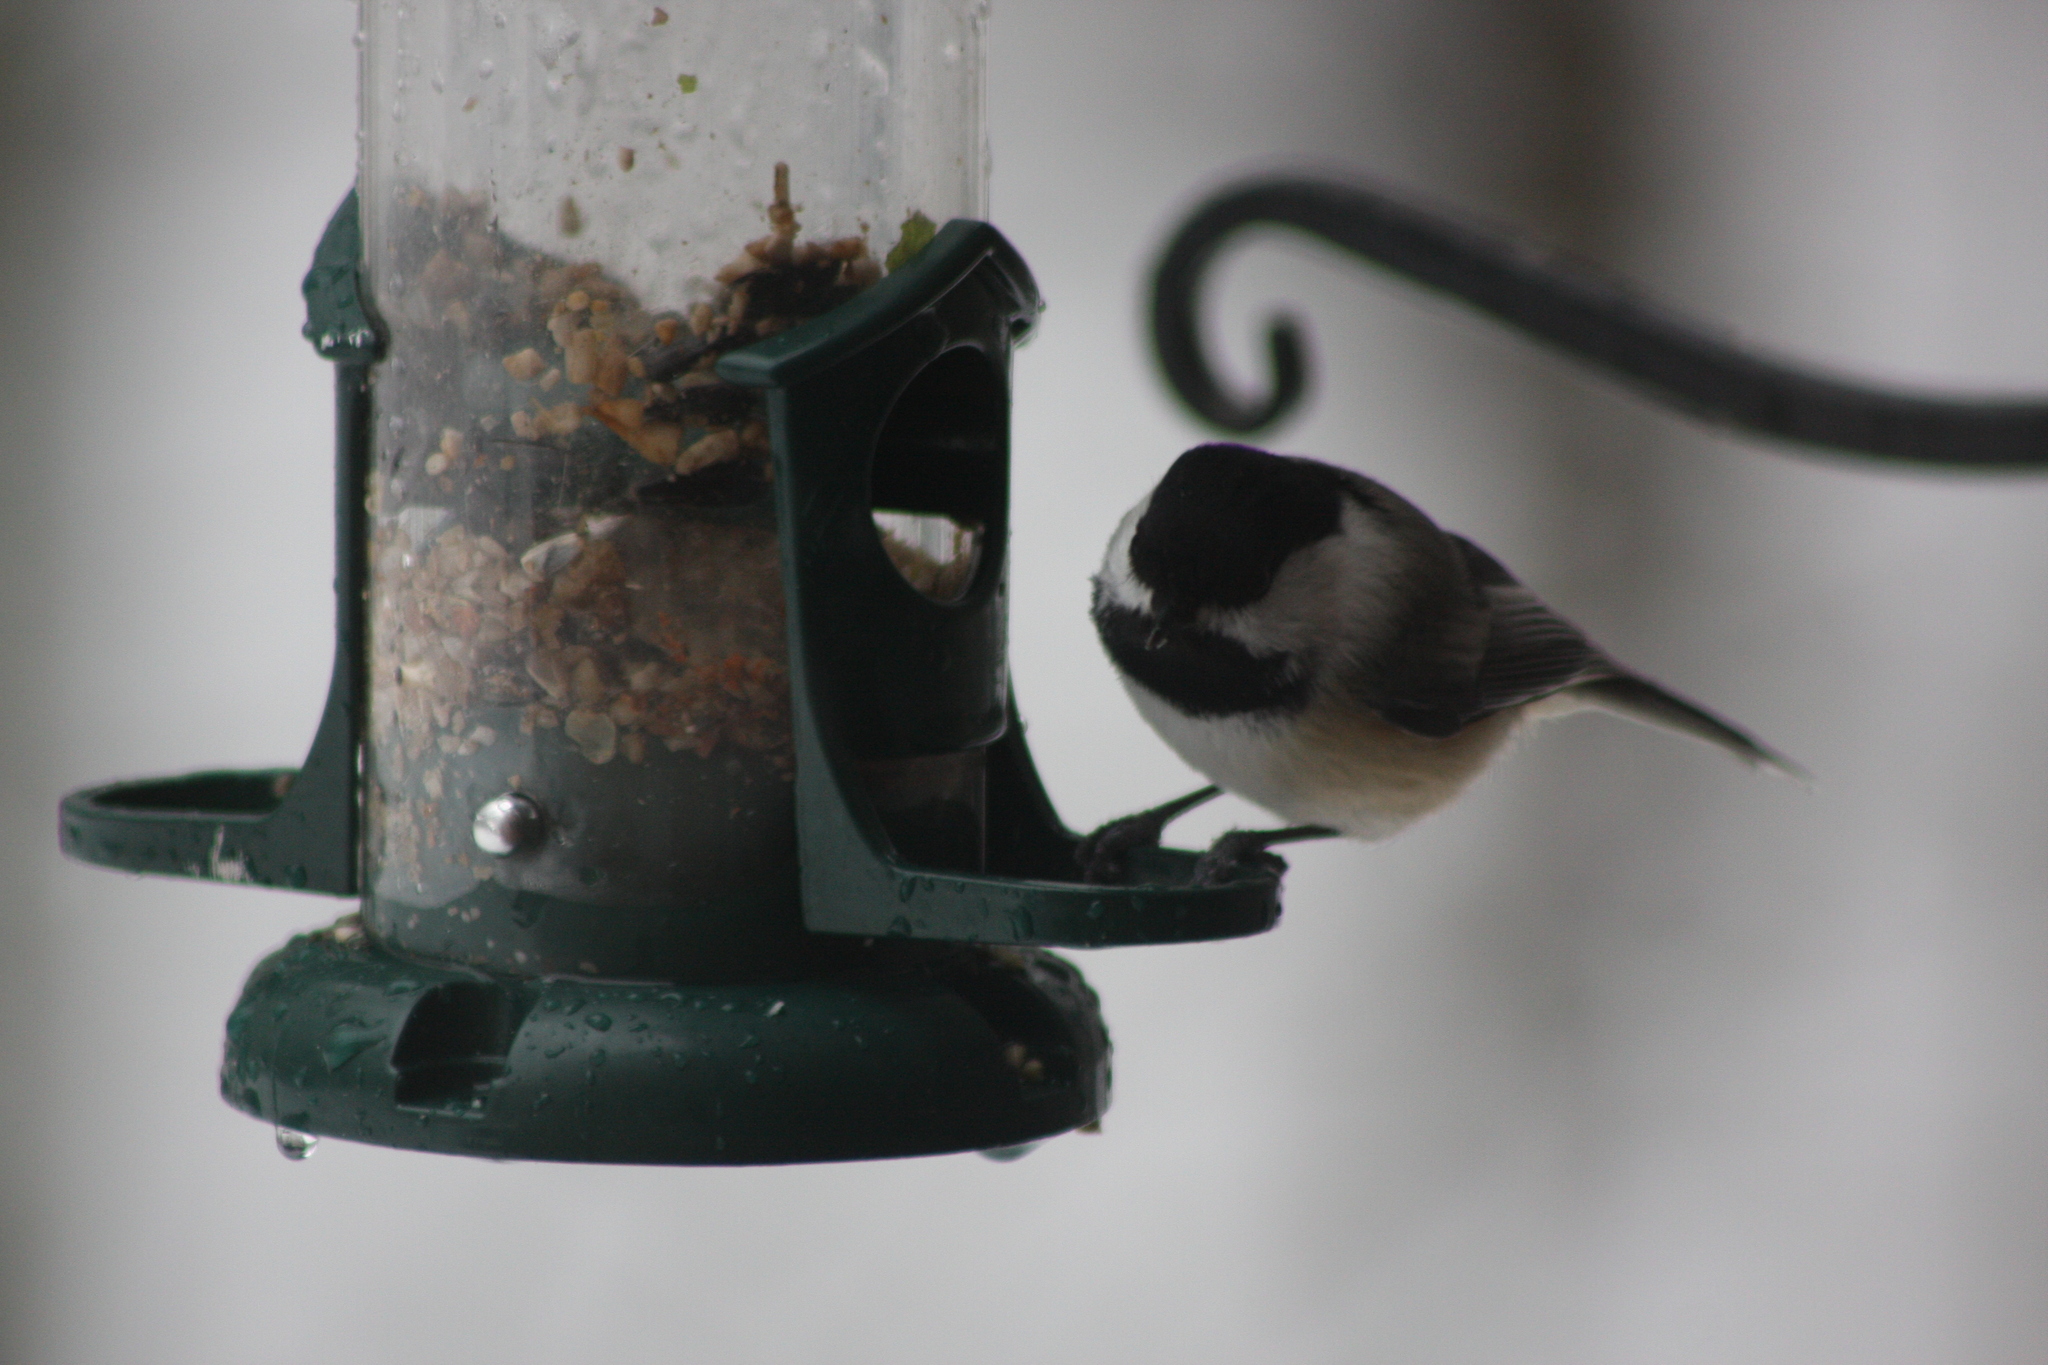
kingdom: Animalia
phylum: Chordata
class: Aves
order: Passeriformes
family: Paridae
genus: Poecile
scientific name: Poecile atricapillus
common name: Black-capped chickadee
